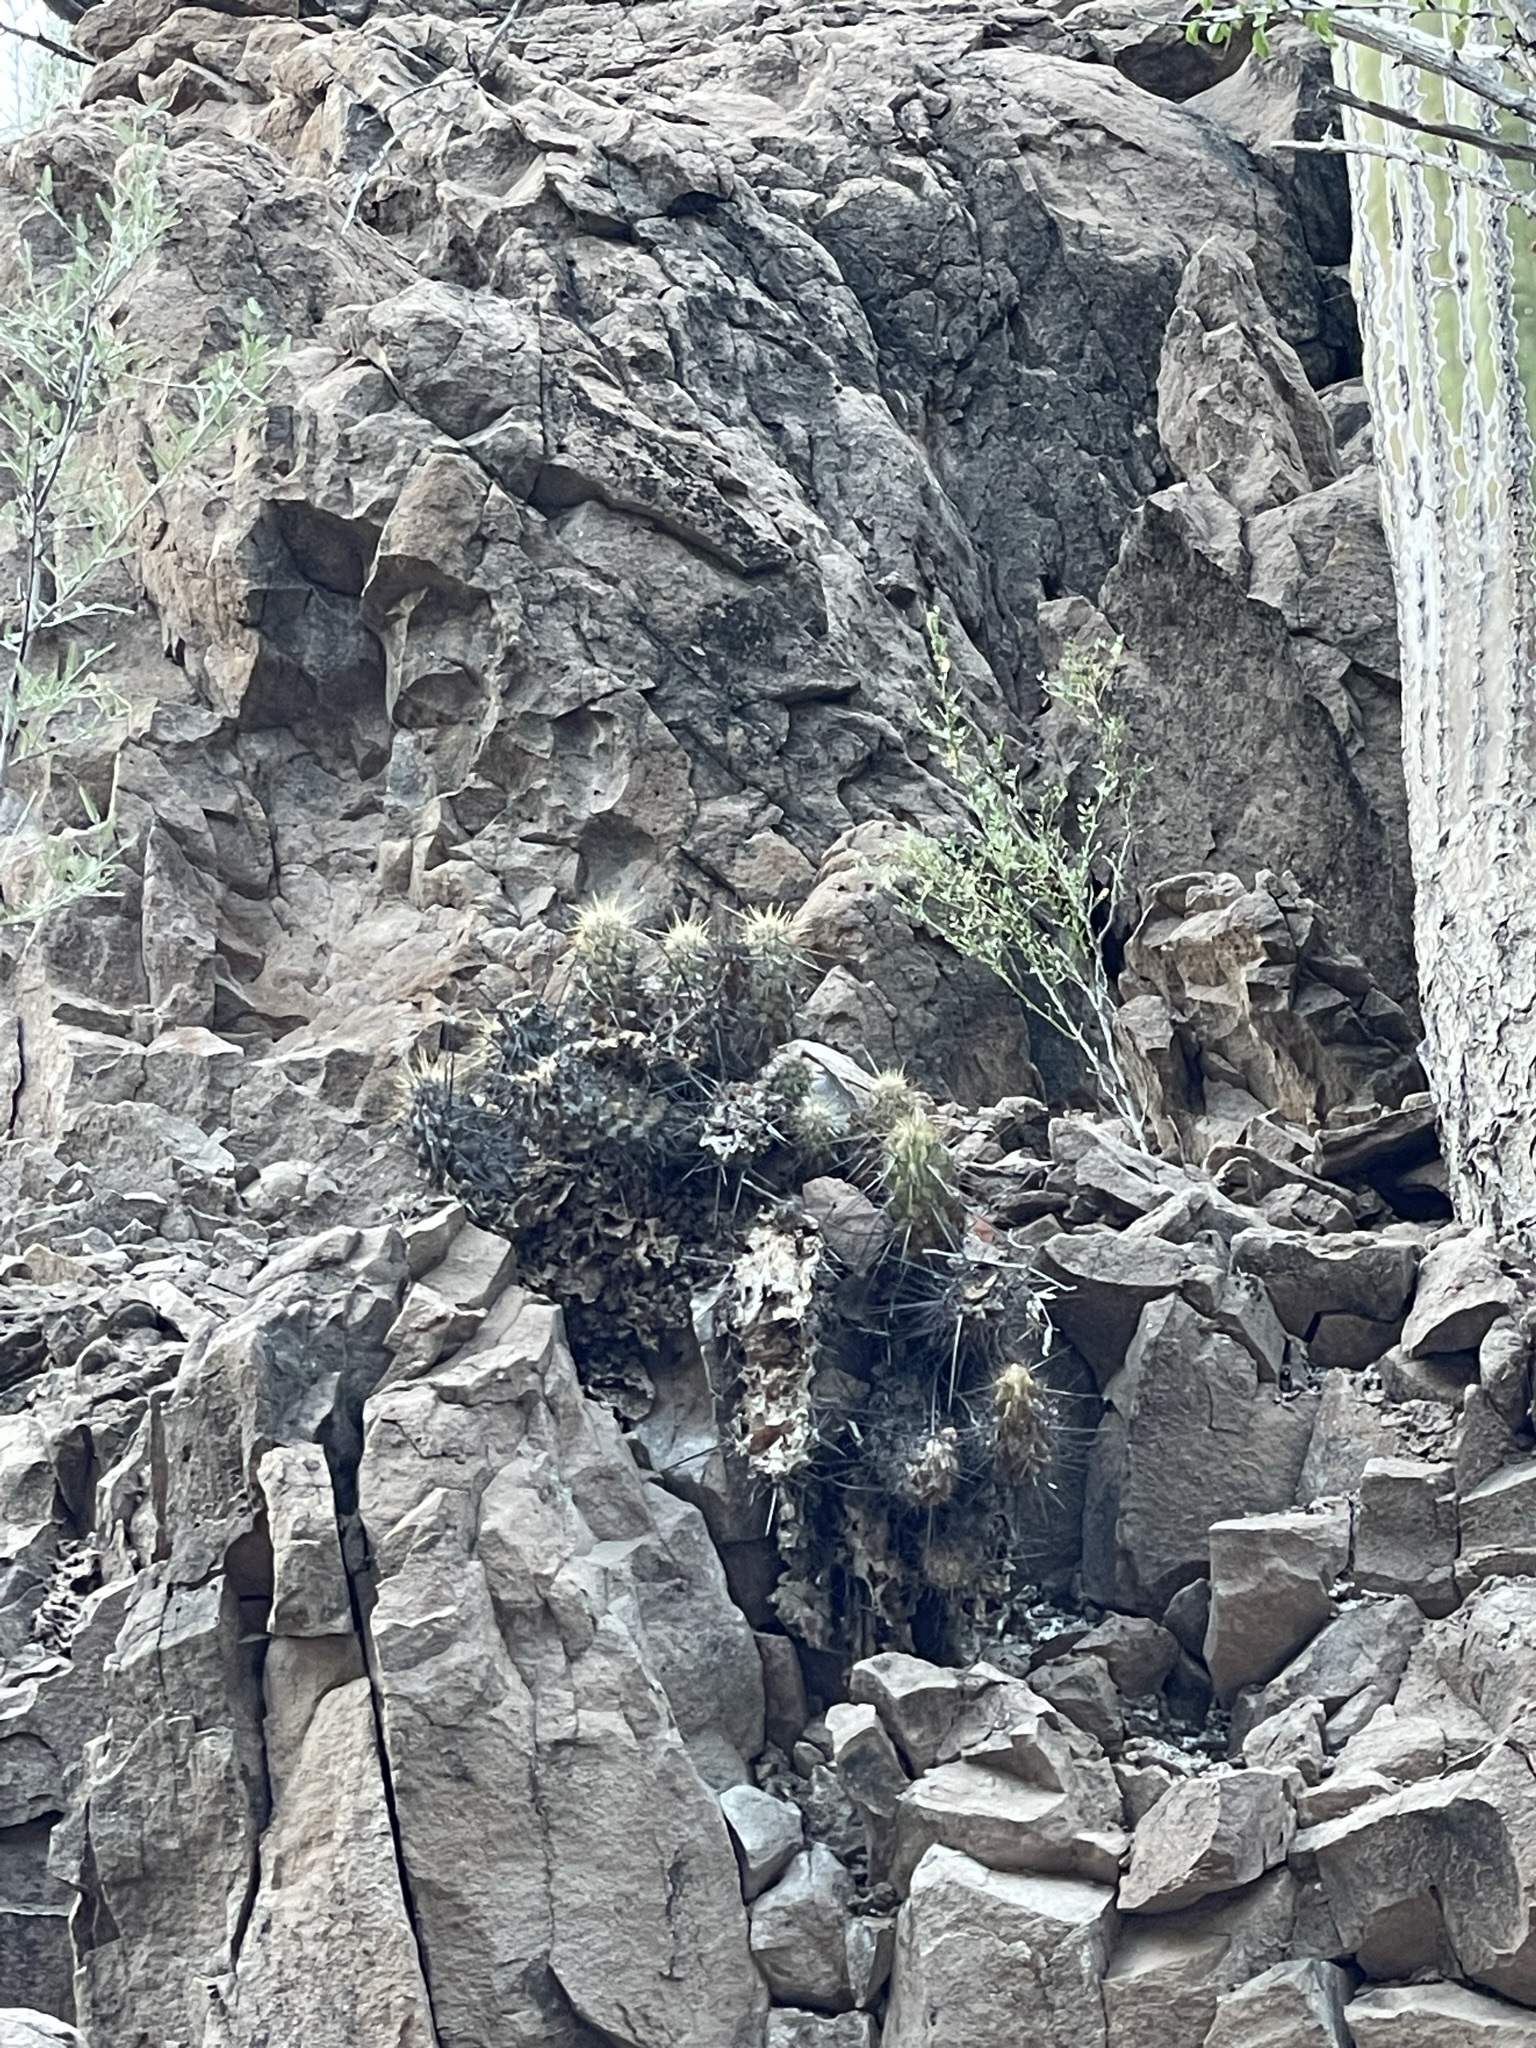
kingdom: Plantae
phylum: Tracheophyta
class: Magnoliopsida
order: Caryophyllales
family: Cactaceae
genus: Echinocereus
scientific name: Echinocereus brandegeei
